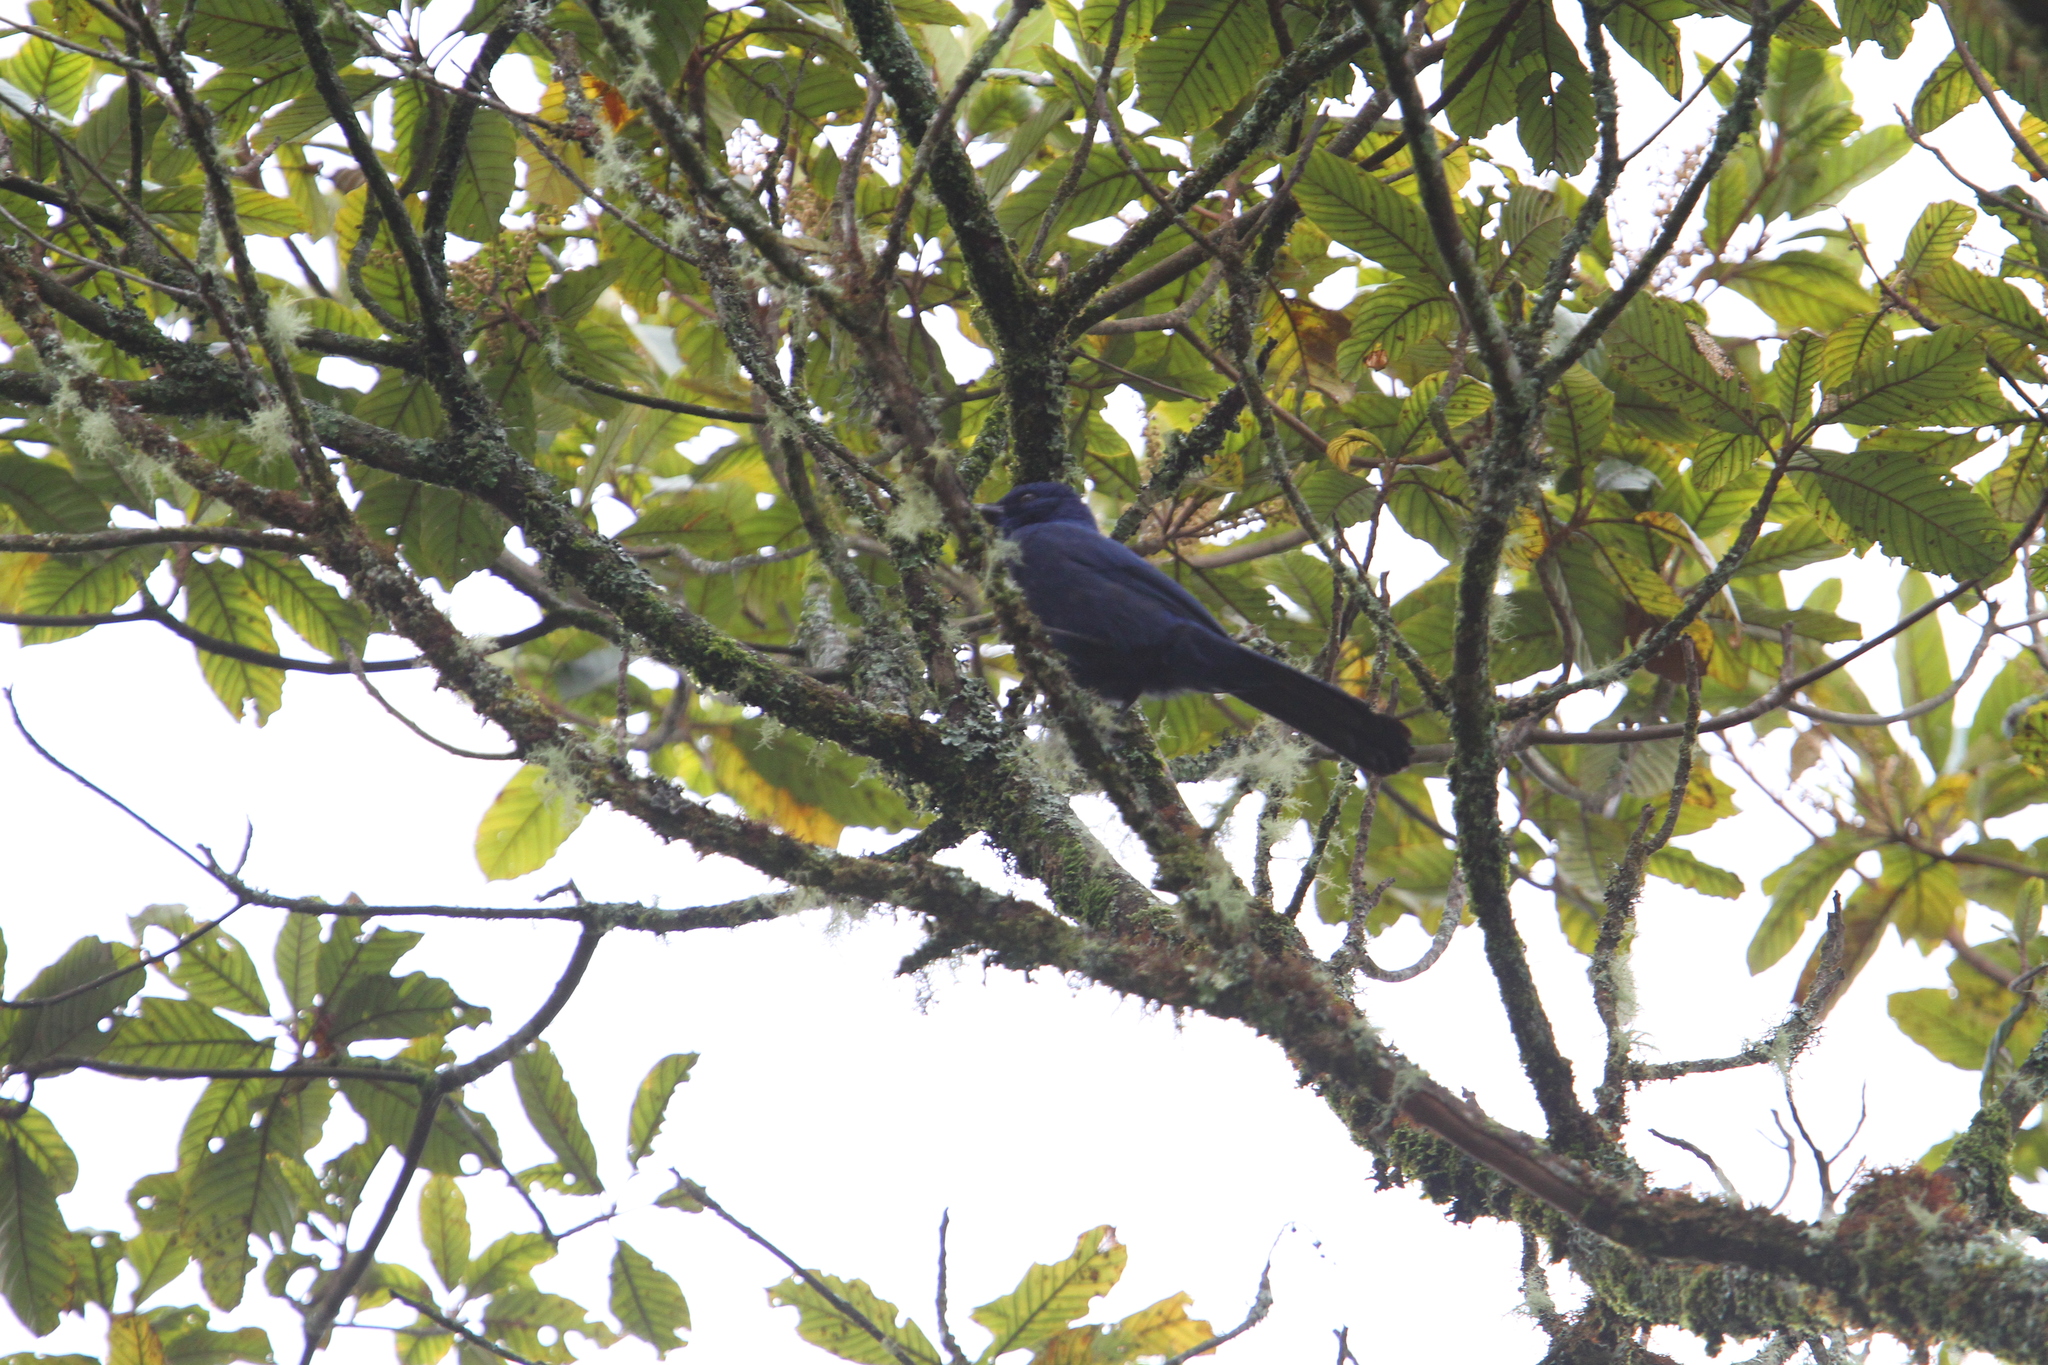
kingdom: Animalia
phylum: Chordata
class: Aves
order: Passeriformes
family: Corvidae
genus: Aphelocoma
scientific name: Aphelocoma unicolor
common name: Unicolored jay
